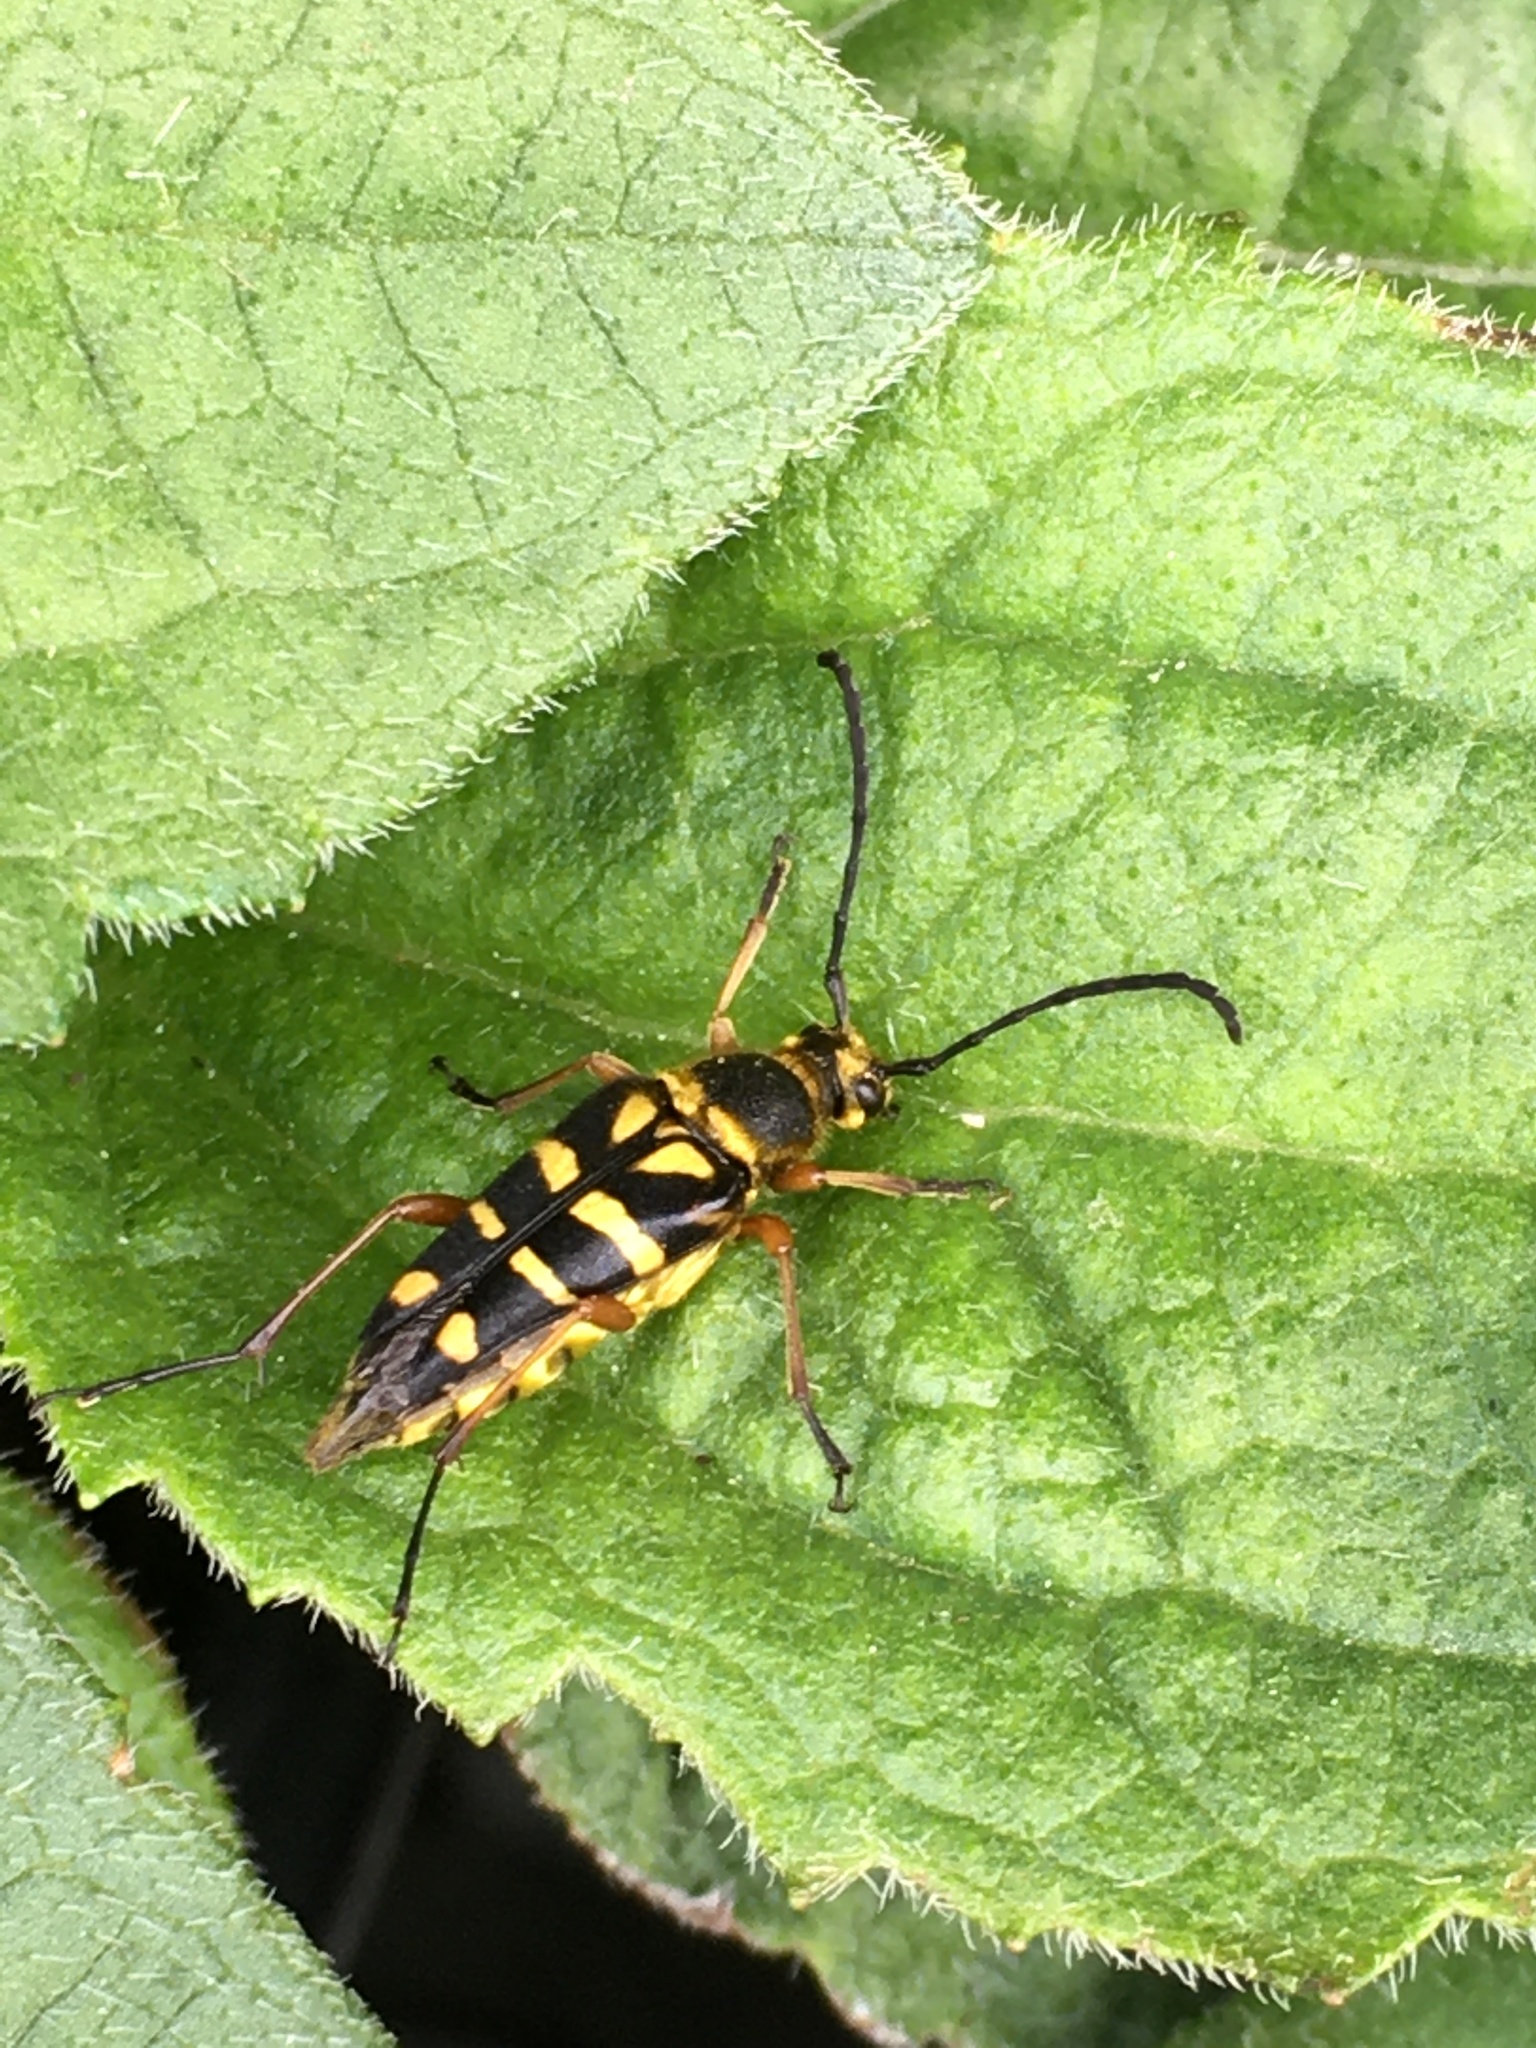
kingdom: Animalia
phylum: Arthropoda
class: Insecta
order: Coleoptera
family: Cerambycidae
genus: Typocerus
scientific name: Typocerus zebra
